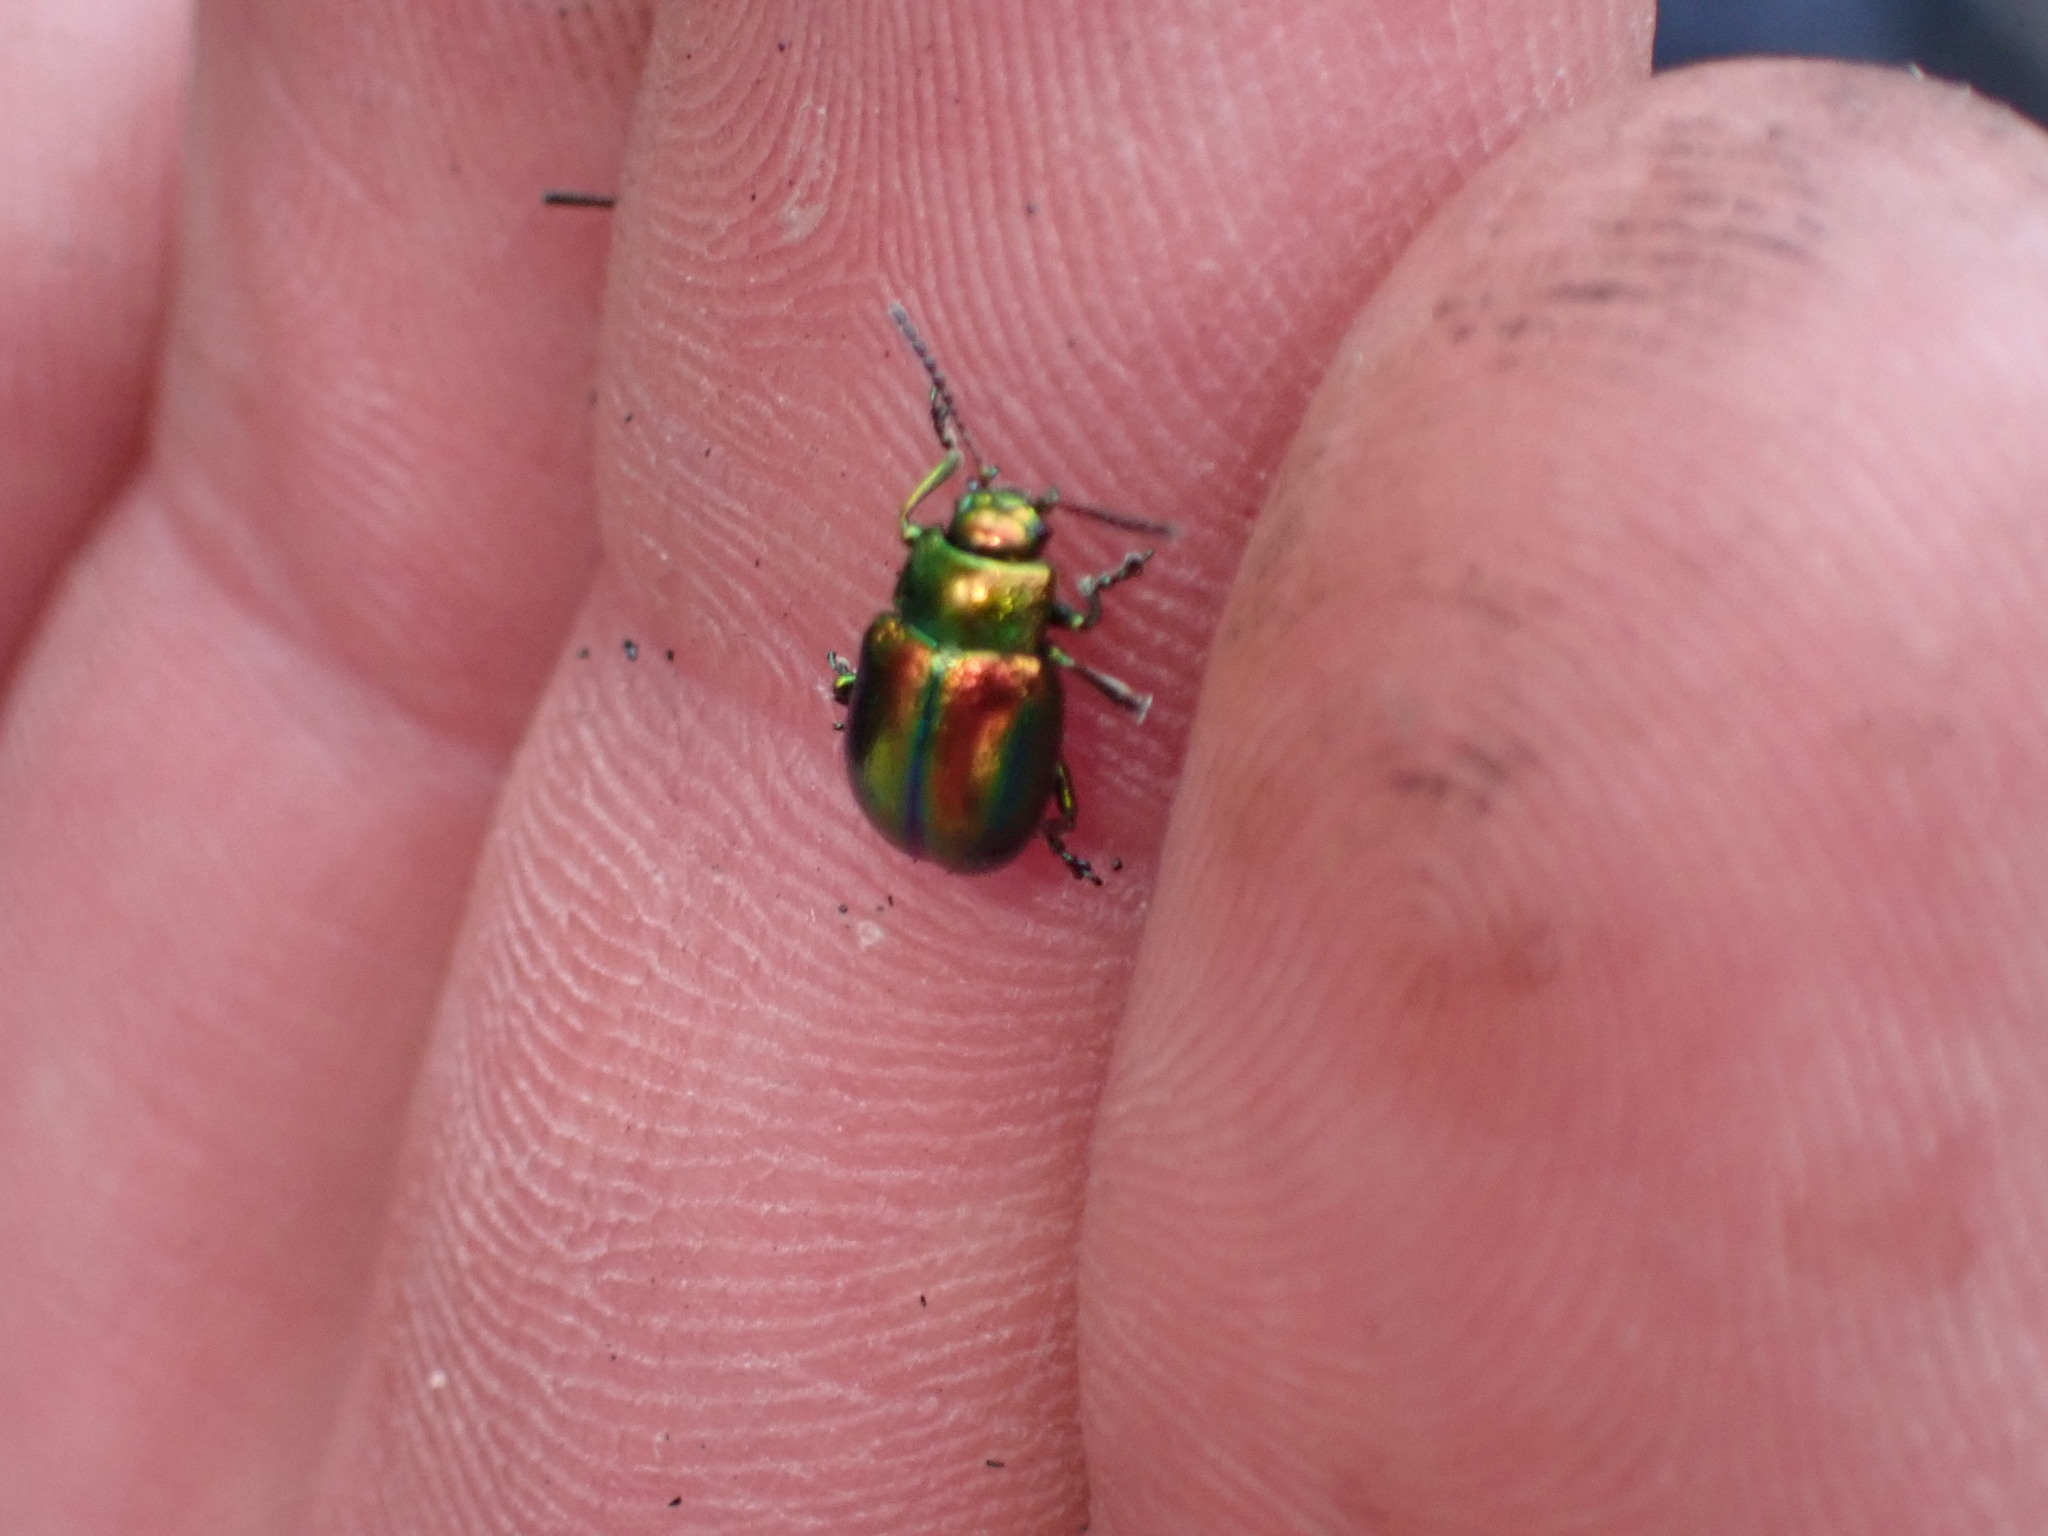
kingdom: Animalia
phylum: Arthropoda
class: Insecta
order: Coleoptera
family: Chrysomelidae
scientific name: Chrysomelidae
